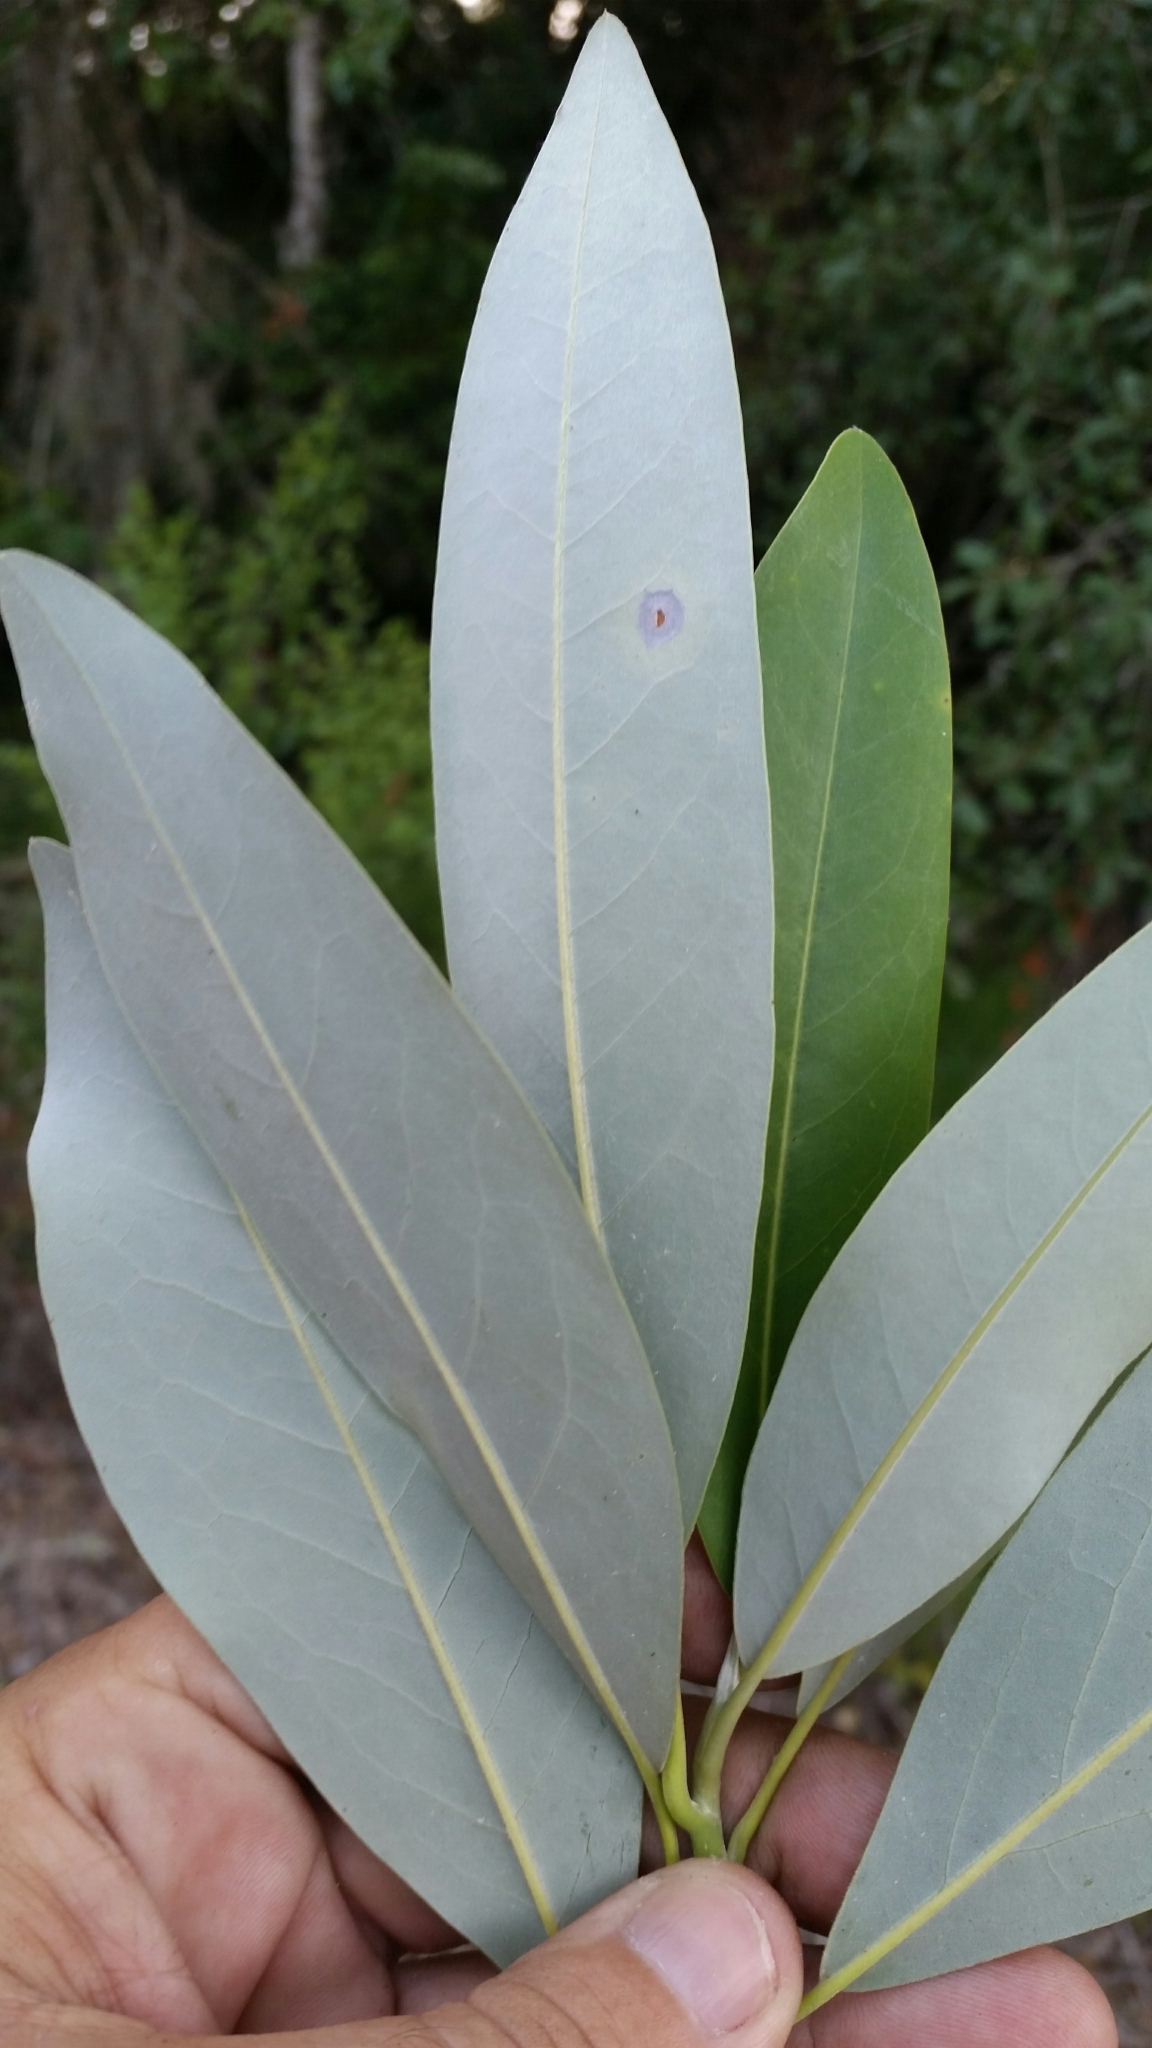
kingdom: Plantae
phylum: Tracheophyta
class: Magnoliopsida
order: Magnoliales
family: Magnoliaceae
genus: Magnolia
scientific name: Magnolia virginiana
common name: Swamp bay
